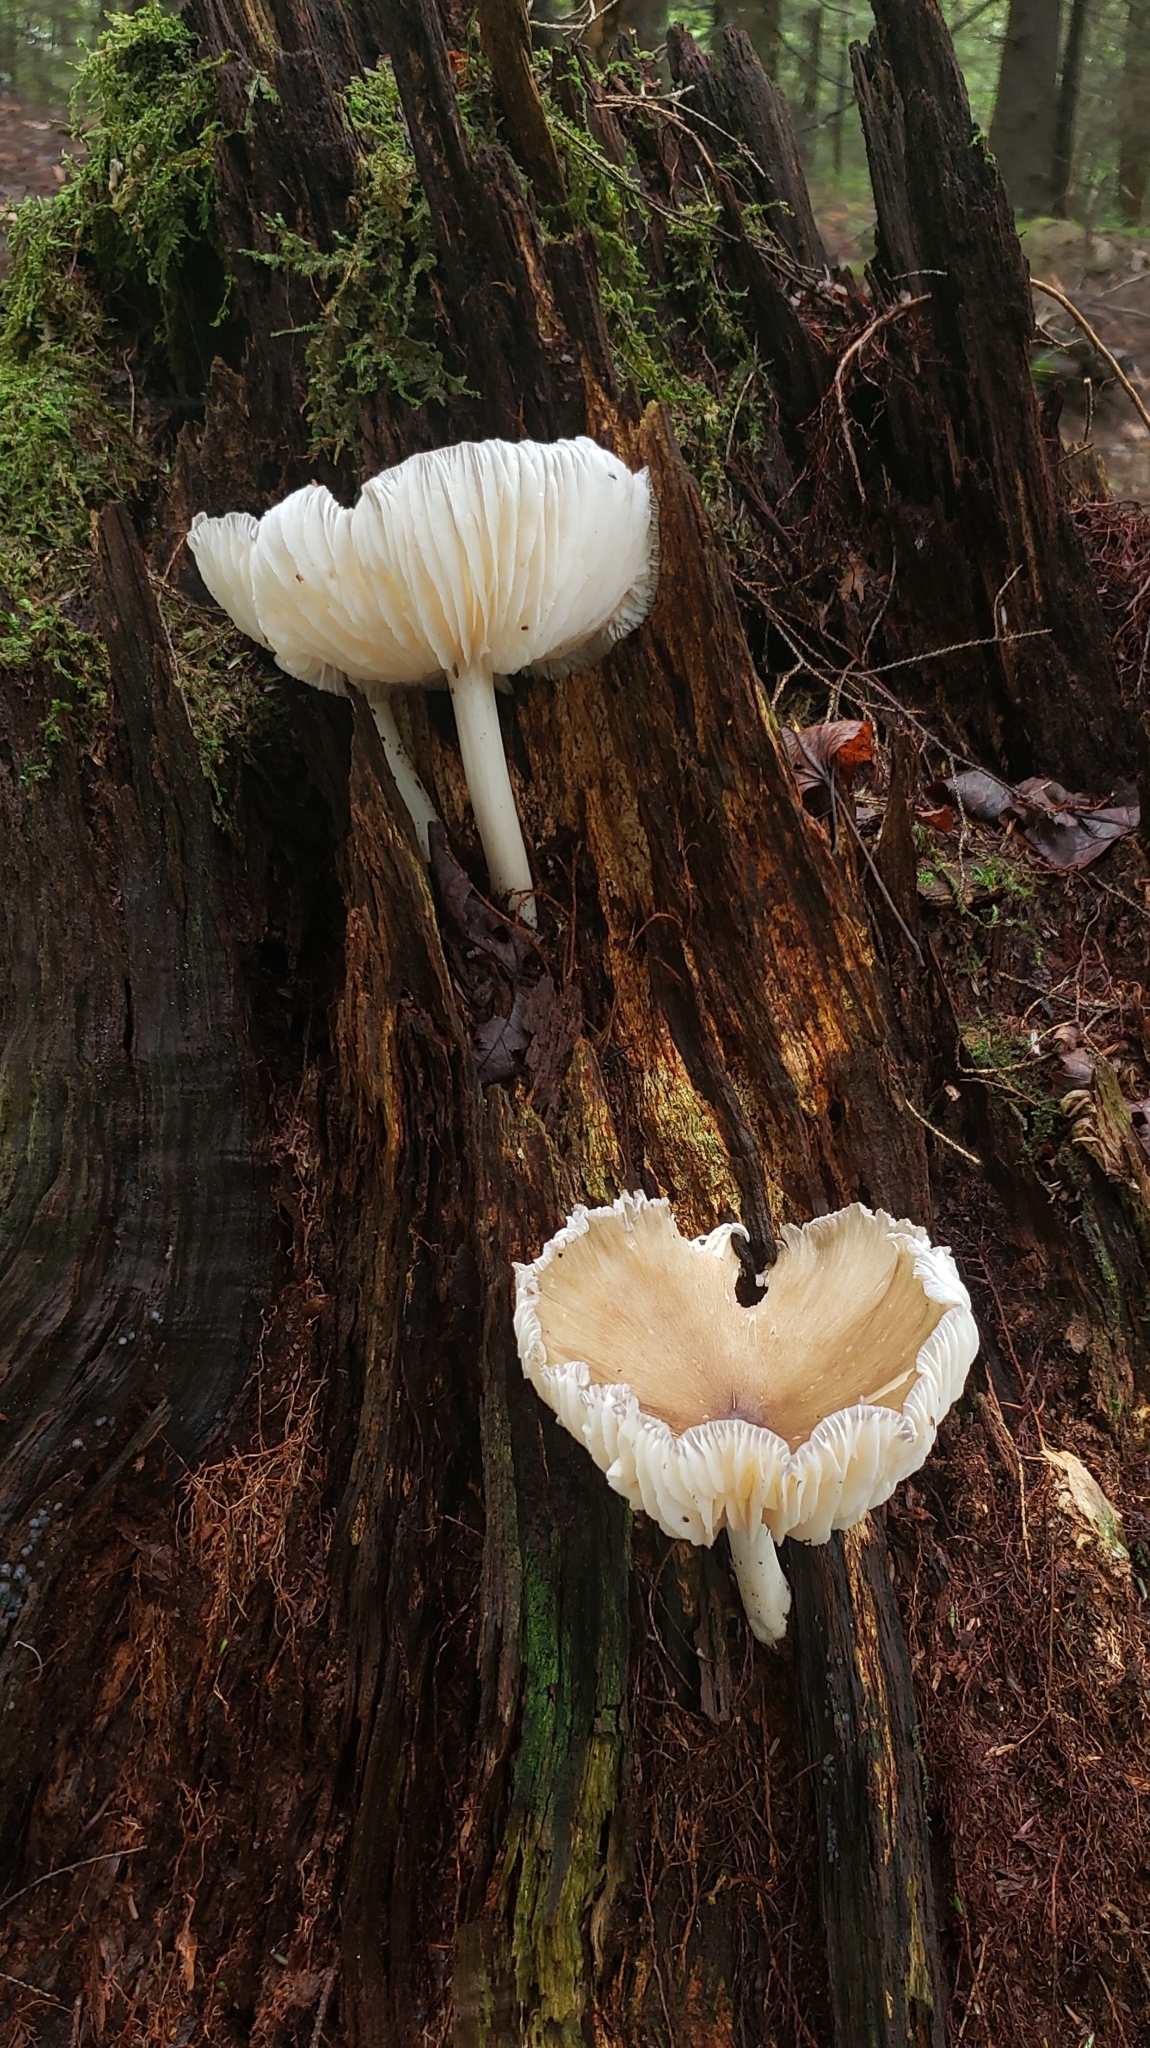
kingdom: Fungi
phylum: Basidiomycota
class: Agaricomycetes
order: Agaricales
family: Tricholomataceae
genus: Megacollybia
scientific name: Megacollybia rodmanii
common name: Eastern american platterful mushroom
